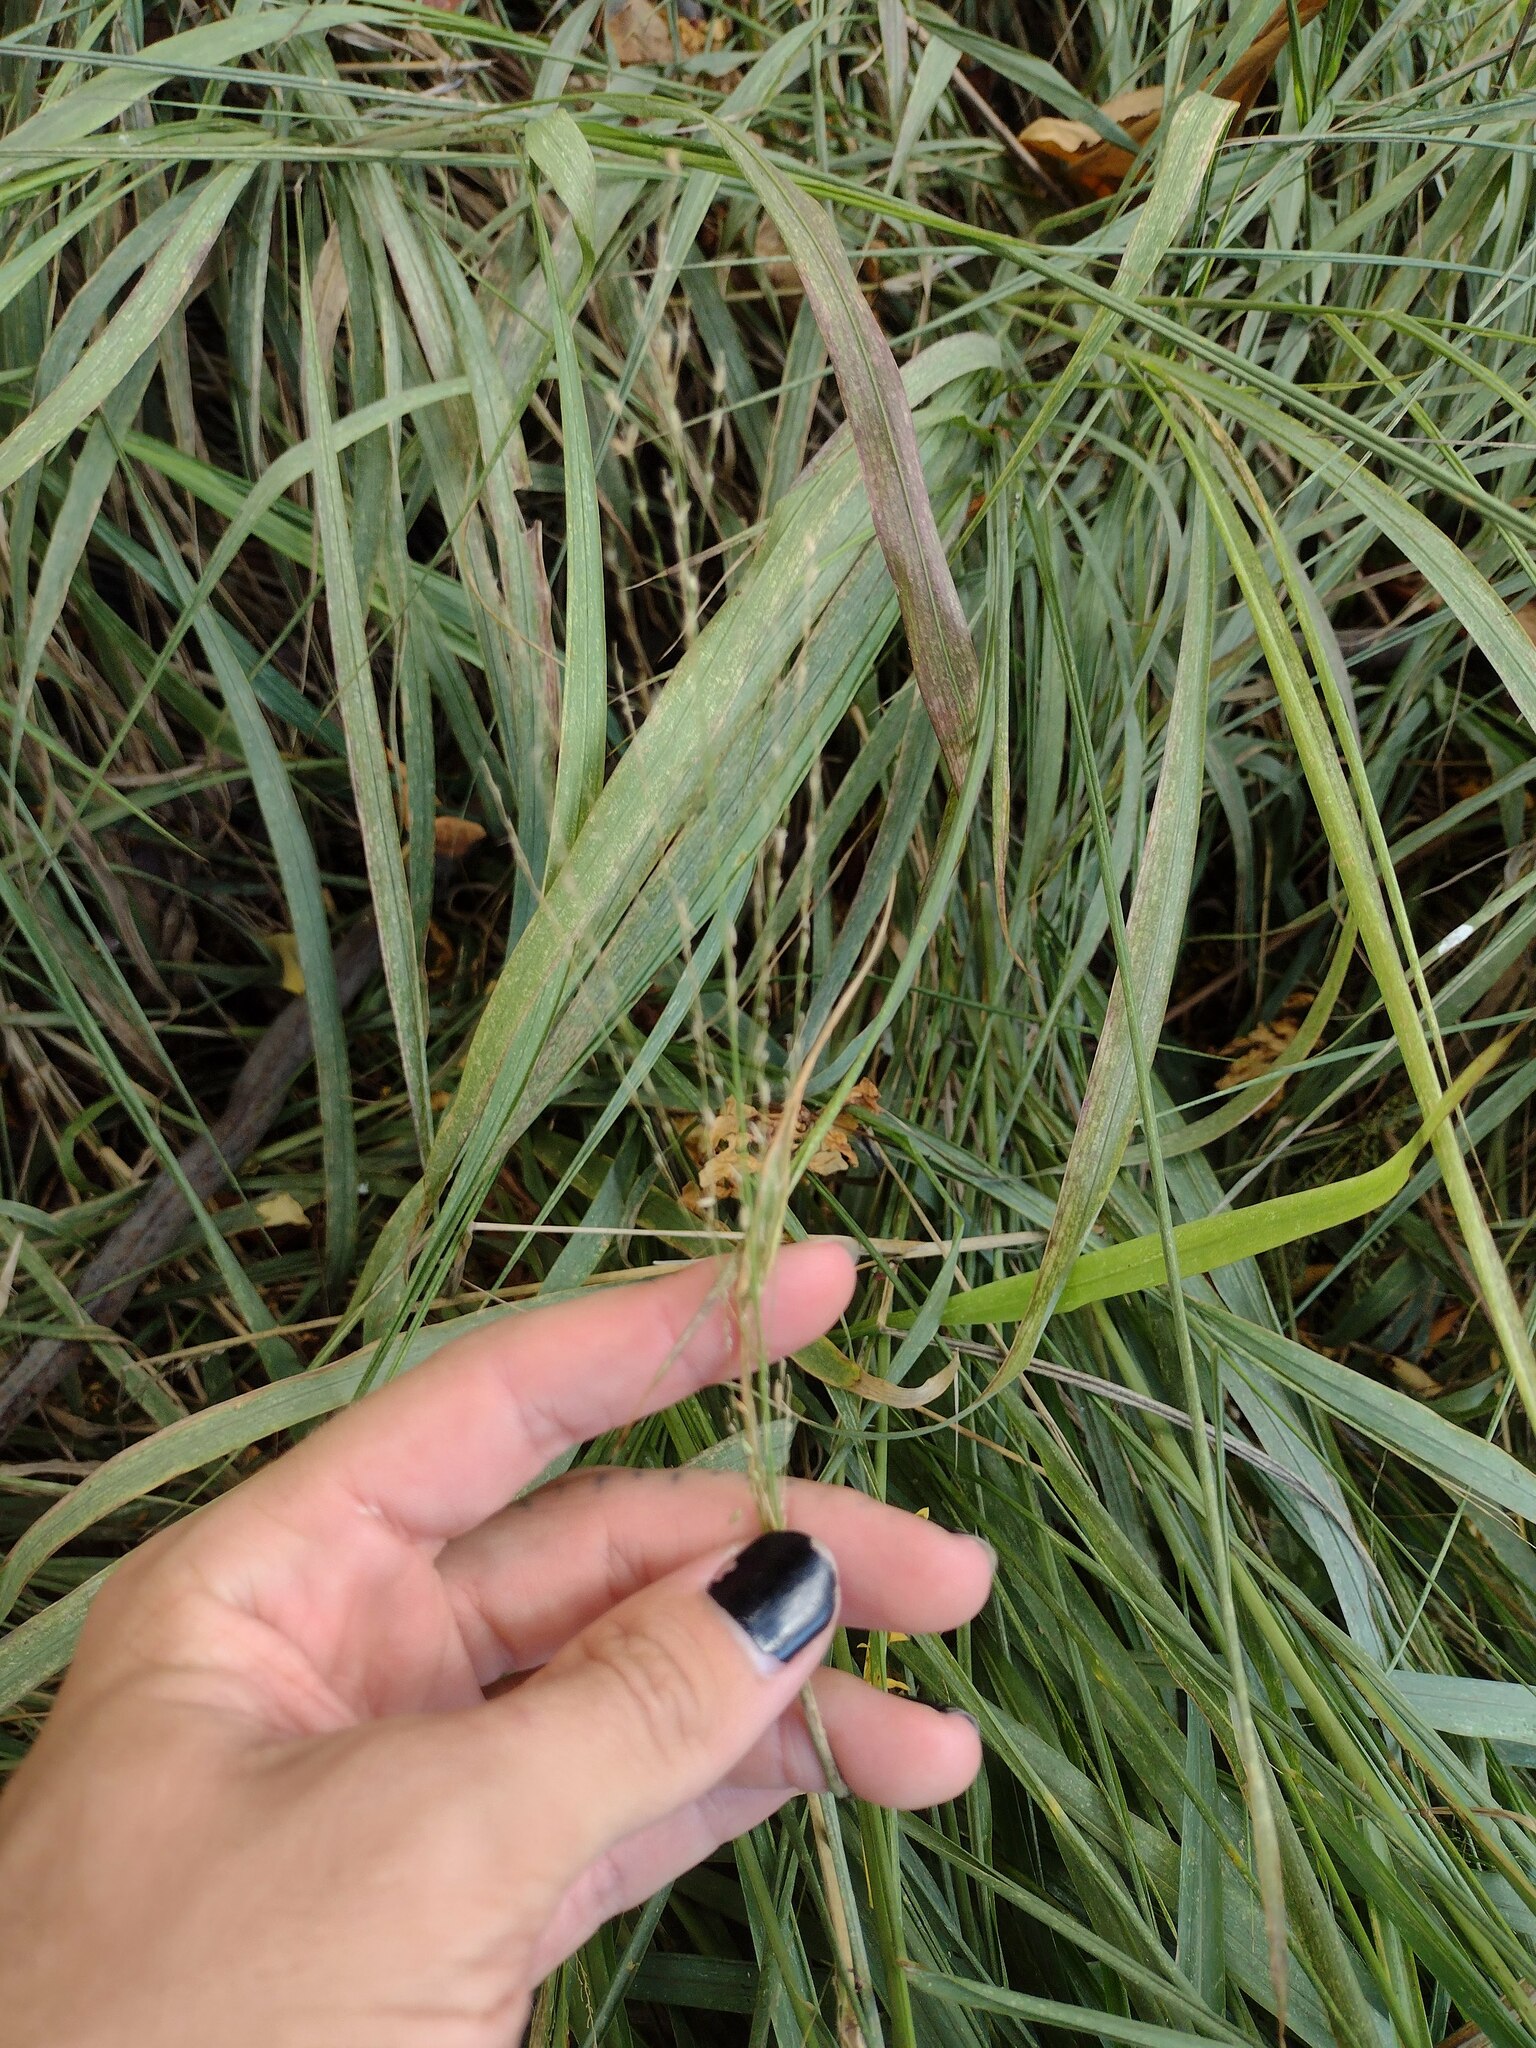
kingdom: Plantae
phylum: Tracheophyta
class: Liliopsida
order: Poales
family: Poaceae
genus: Megathyrsus
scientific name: Megathyrsus maximus
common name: Guineagrass
